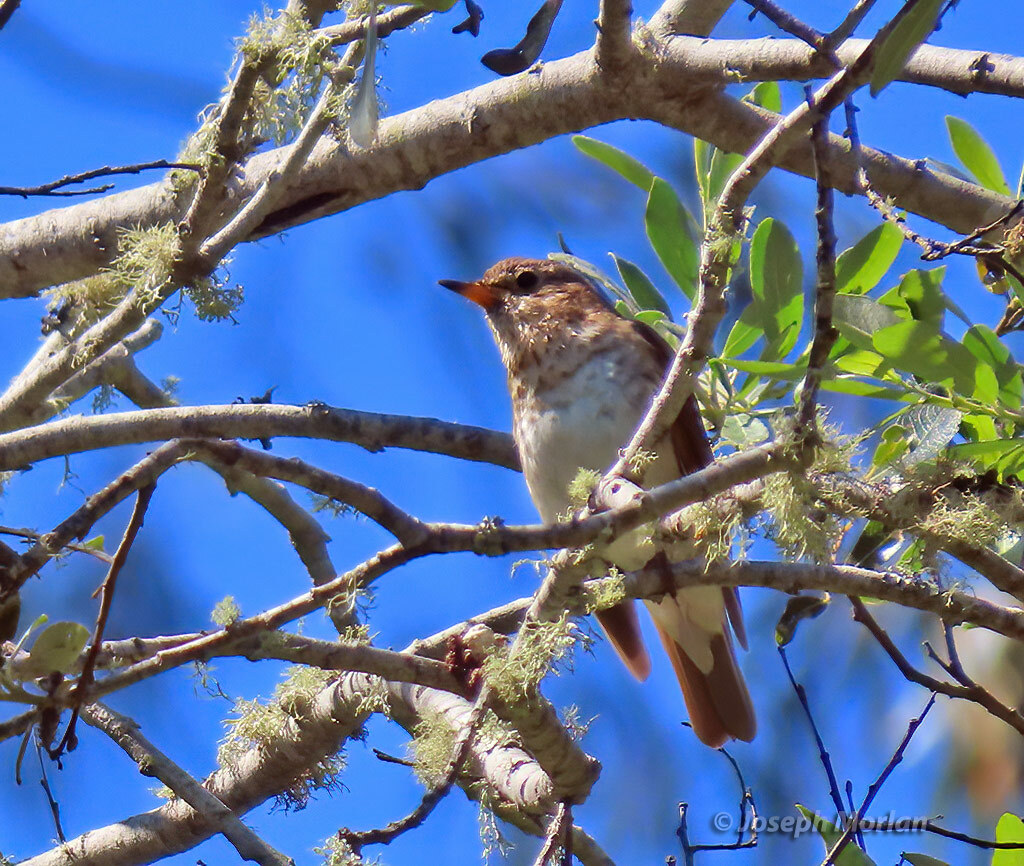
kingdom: Animalia
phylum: Chordata
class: Aves
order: Passeriformes
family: Turdidae
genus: Catharus
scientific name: Catharus ustulatus
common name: Swainson's thrush
